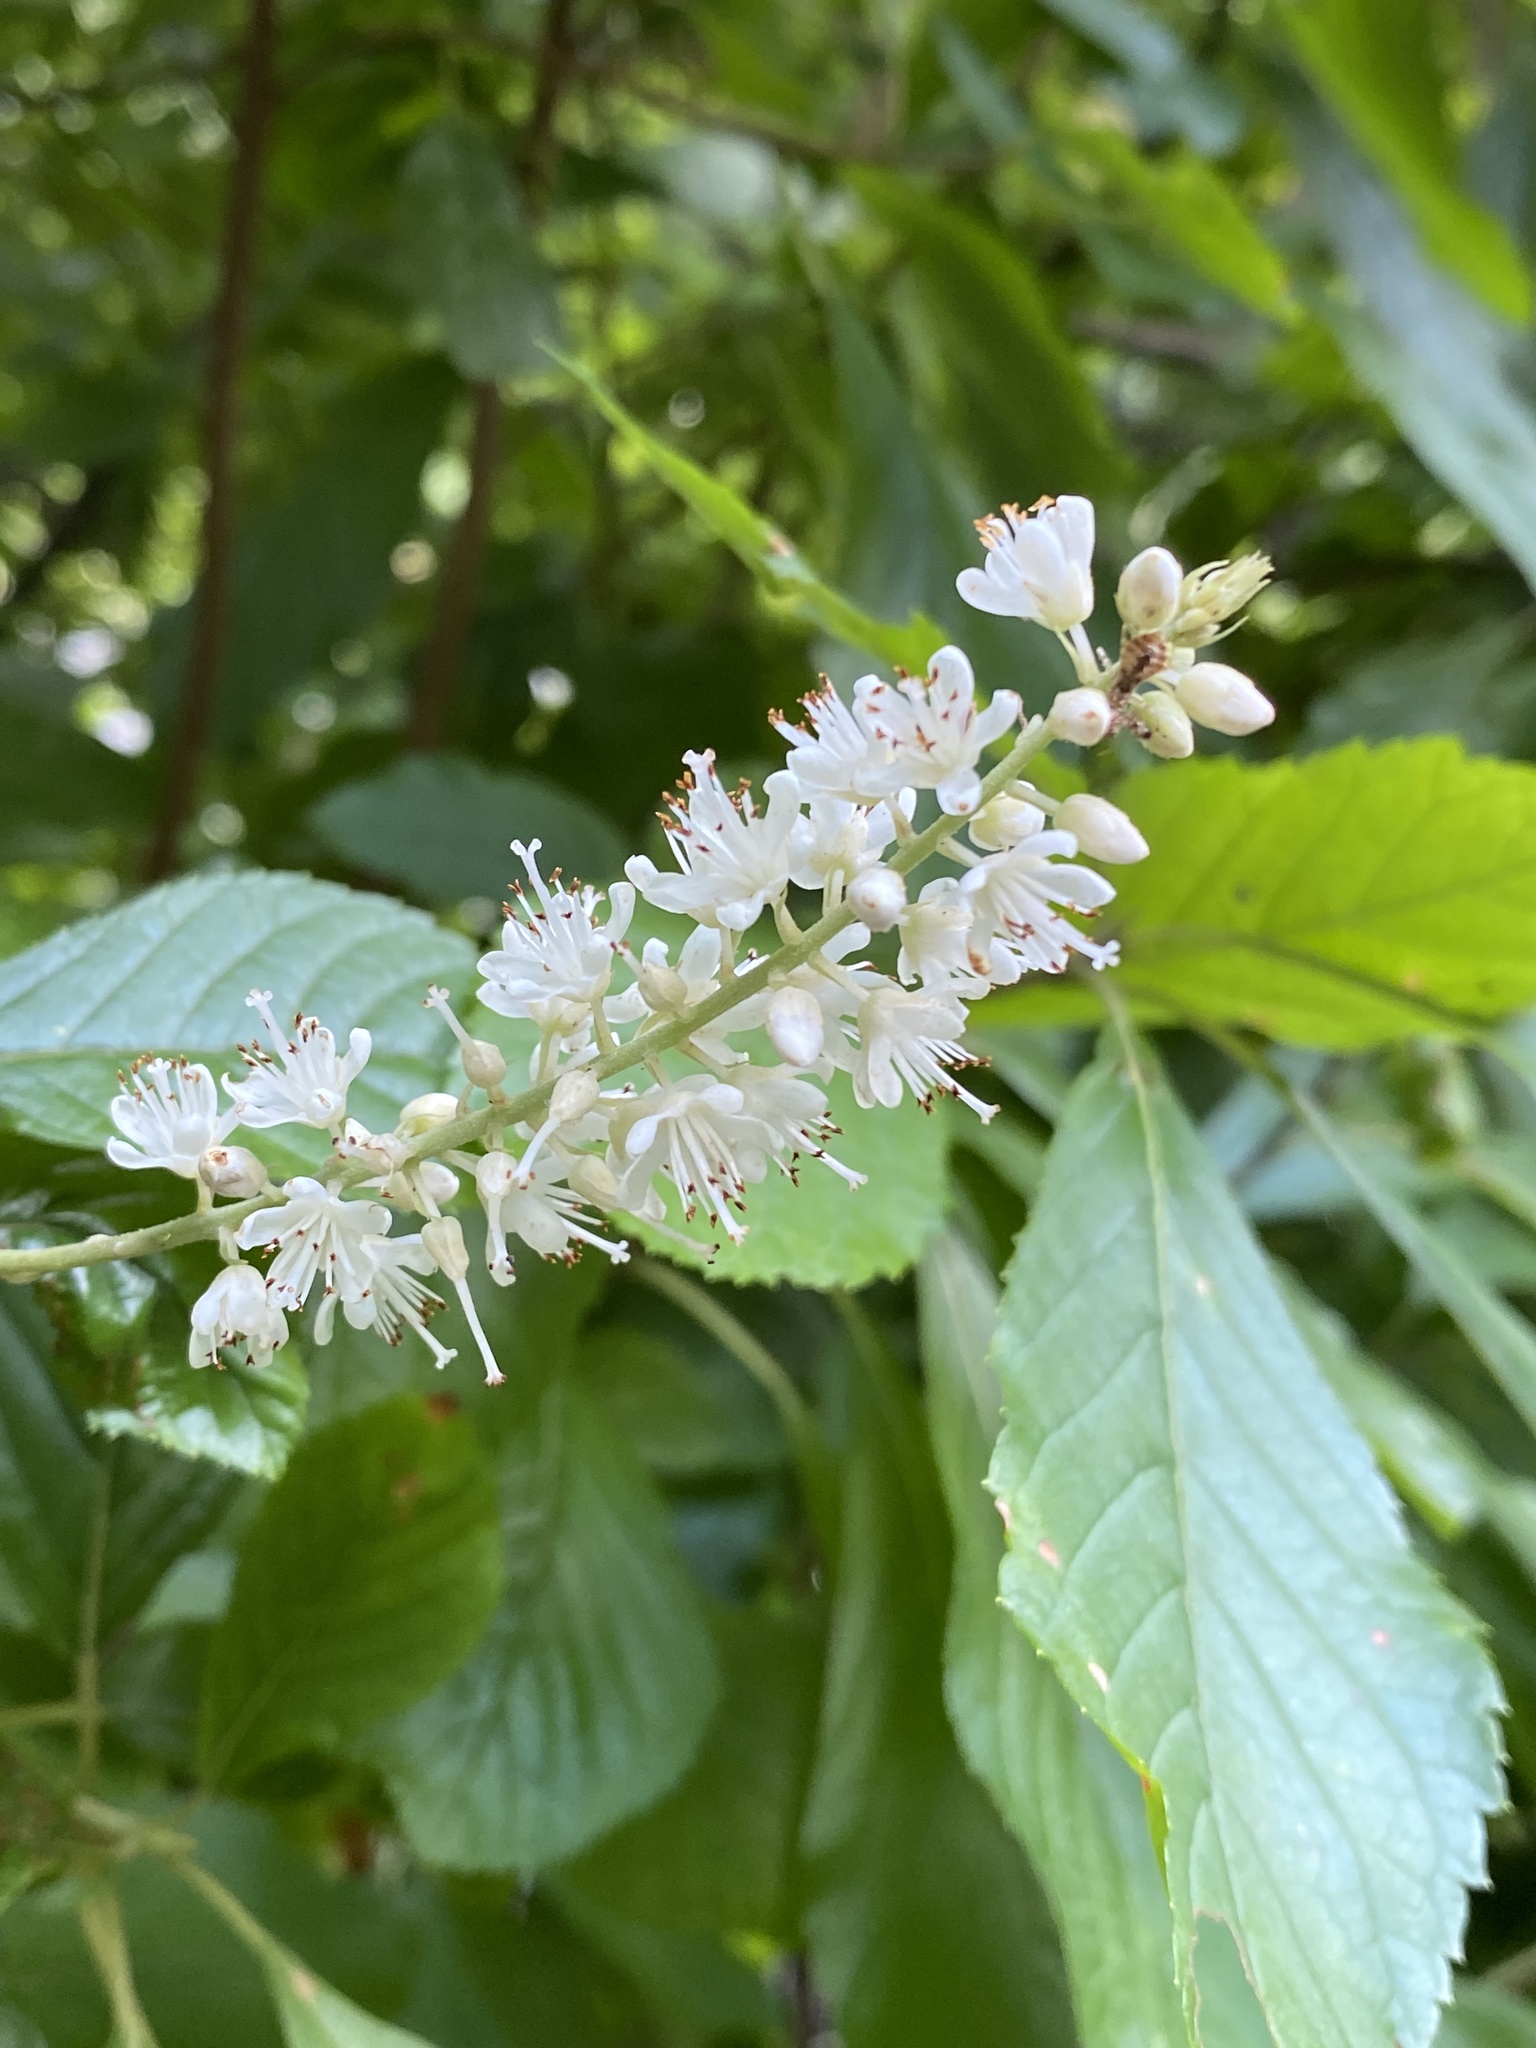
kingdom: Plantae
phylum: Tracheophyta
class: Magnoliopsida
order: Ericales
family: Clethraceae
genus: Clethra
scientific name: Clethra alnifolia
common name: Sweet pepperbush
